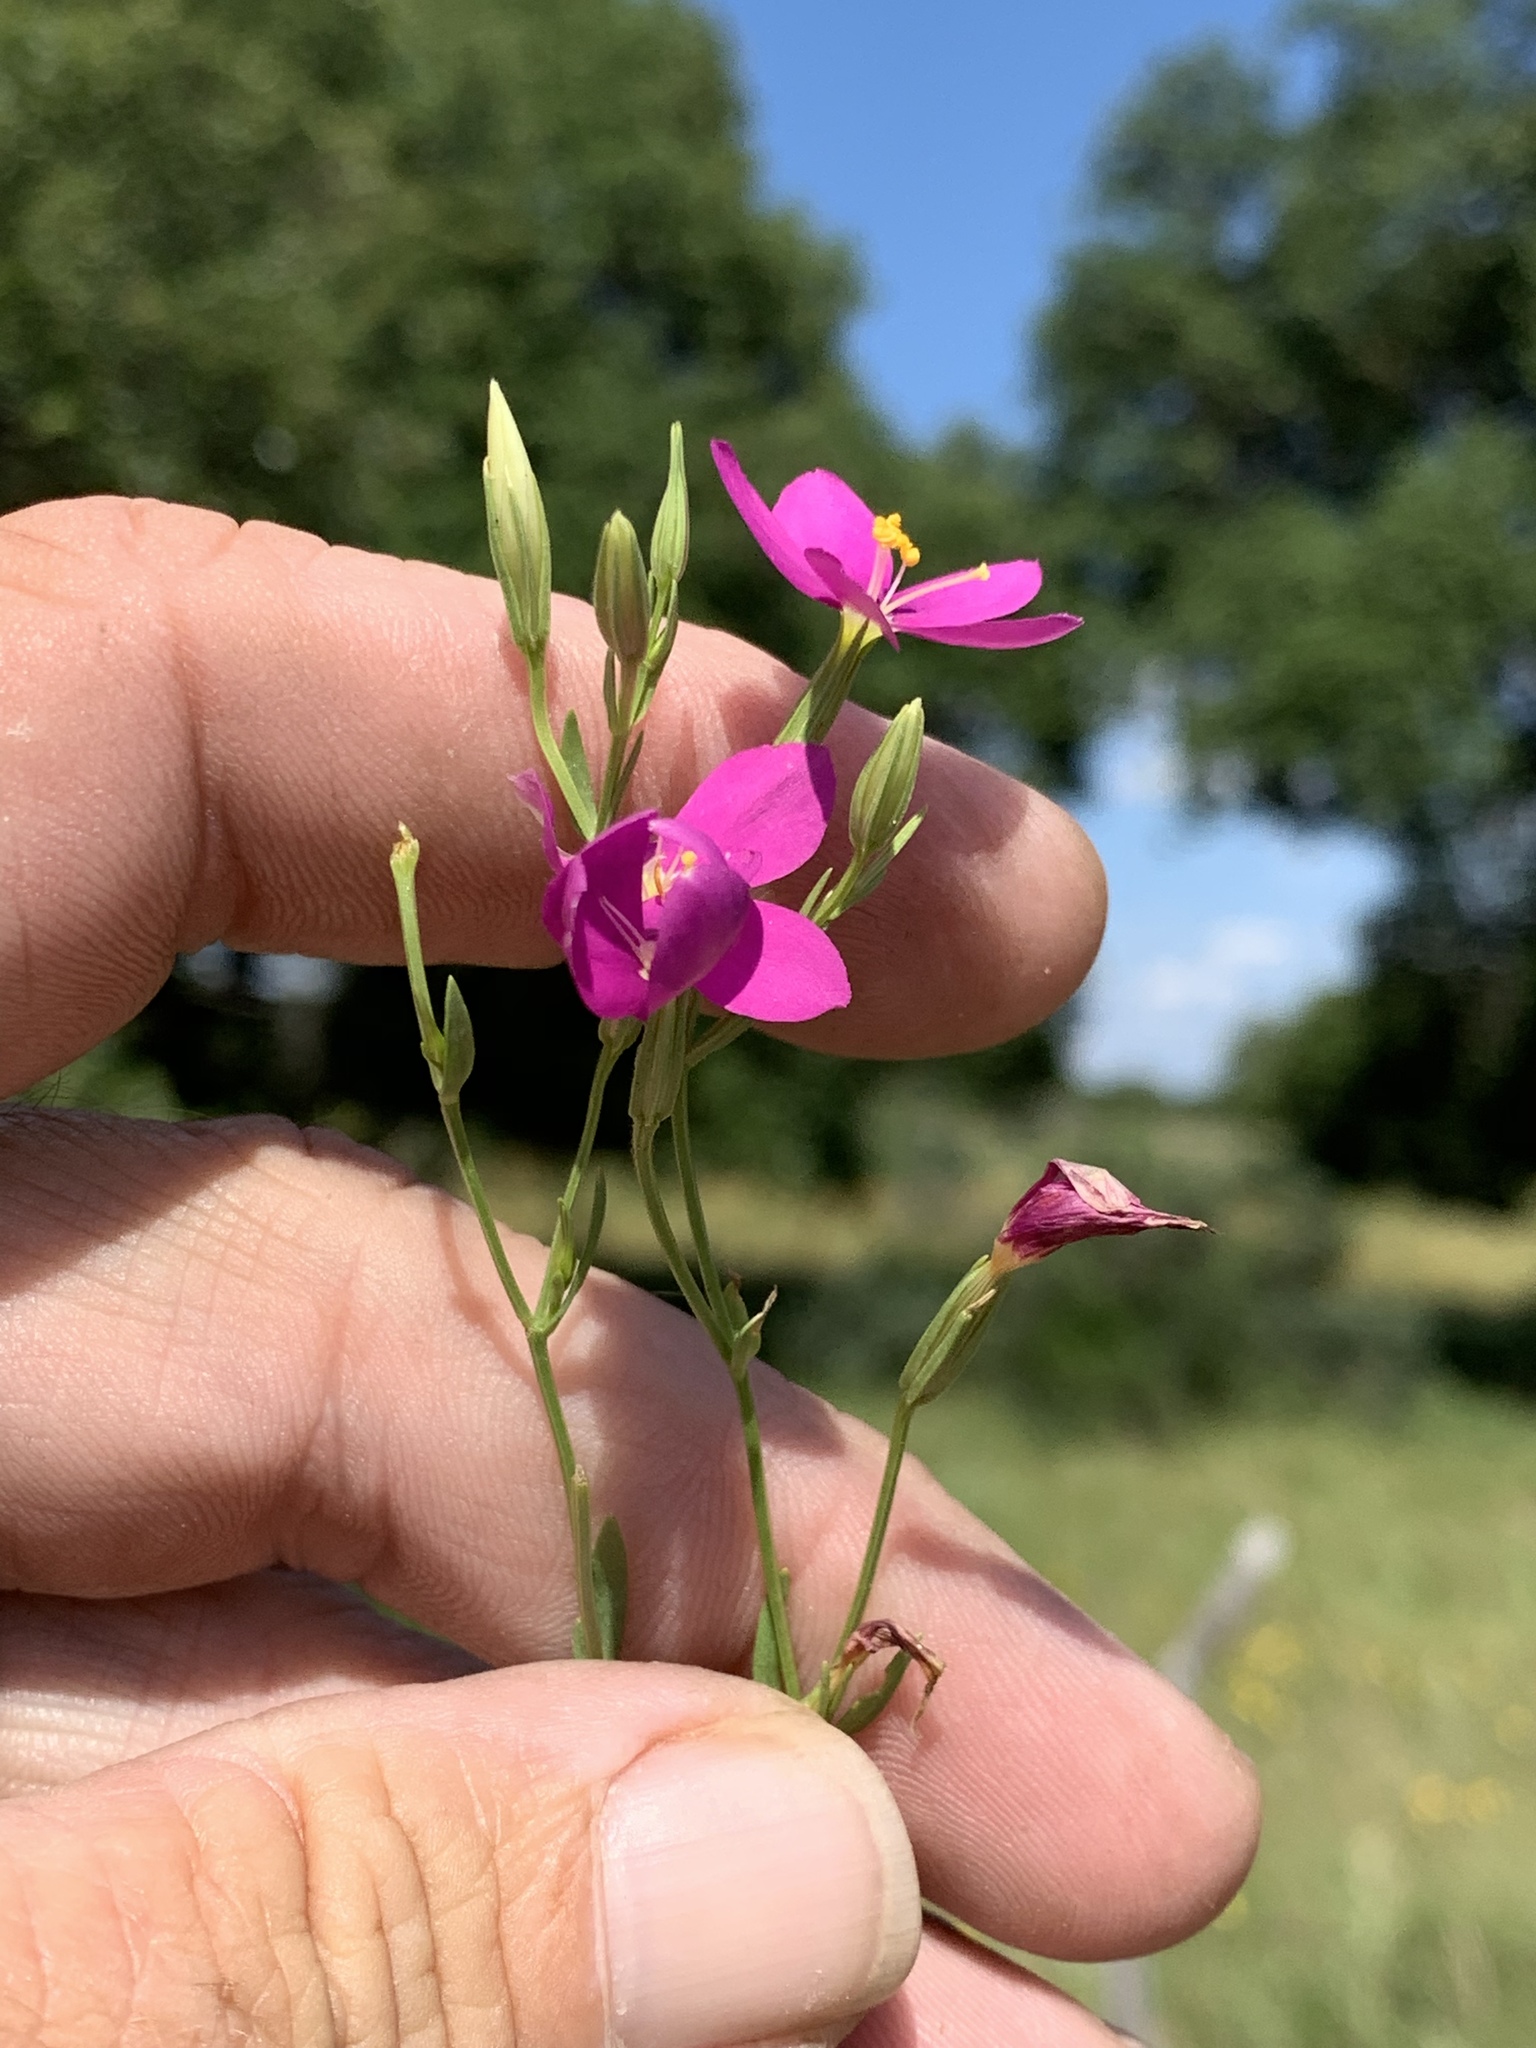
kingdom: Plantae
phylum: Tracheophyta
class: Magnoliopsida
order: Gentianales
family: Gentianaceae
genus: Sabatia
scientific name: Sabatia campestris
